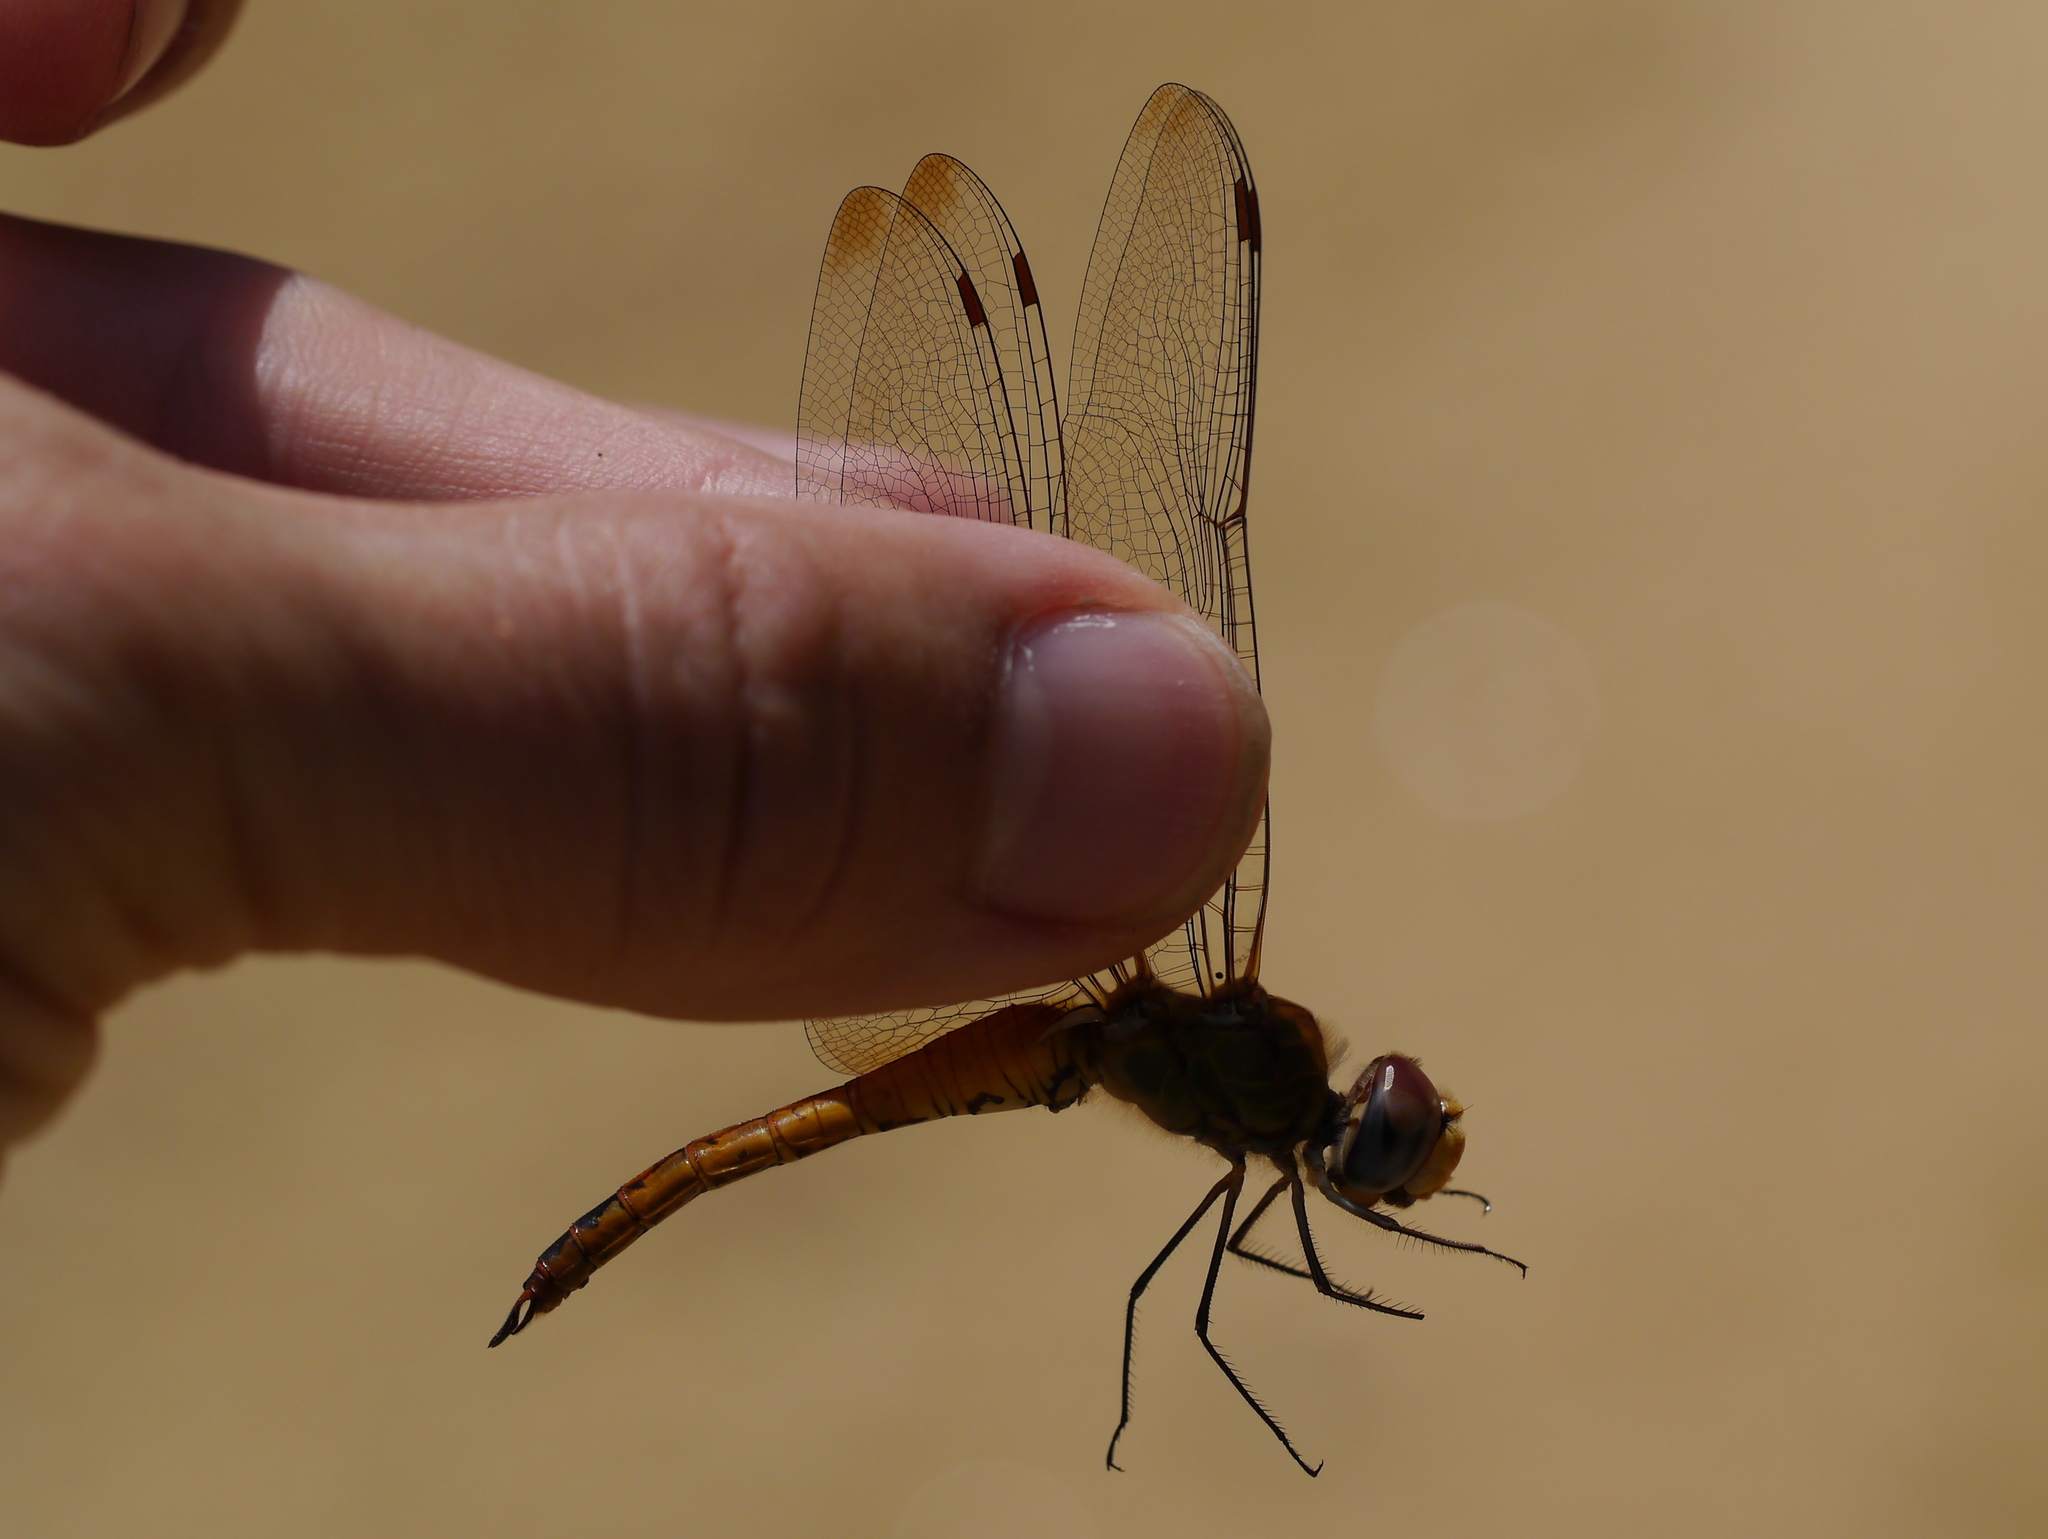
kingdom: Animalia
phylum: Arthropoda
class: Insecta
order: Odonata
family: Libellulidae
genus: Pantala
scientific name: Pantala flavescens
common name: Wandering glider
